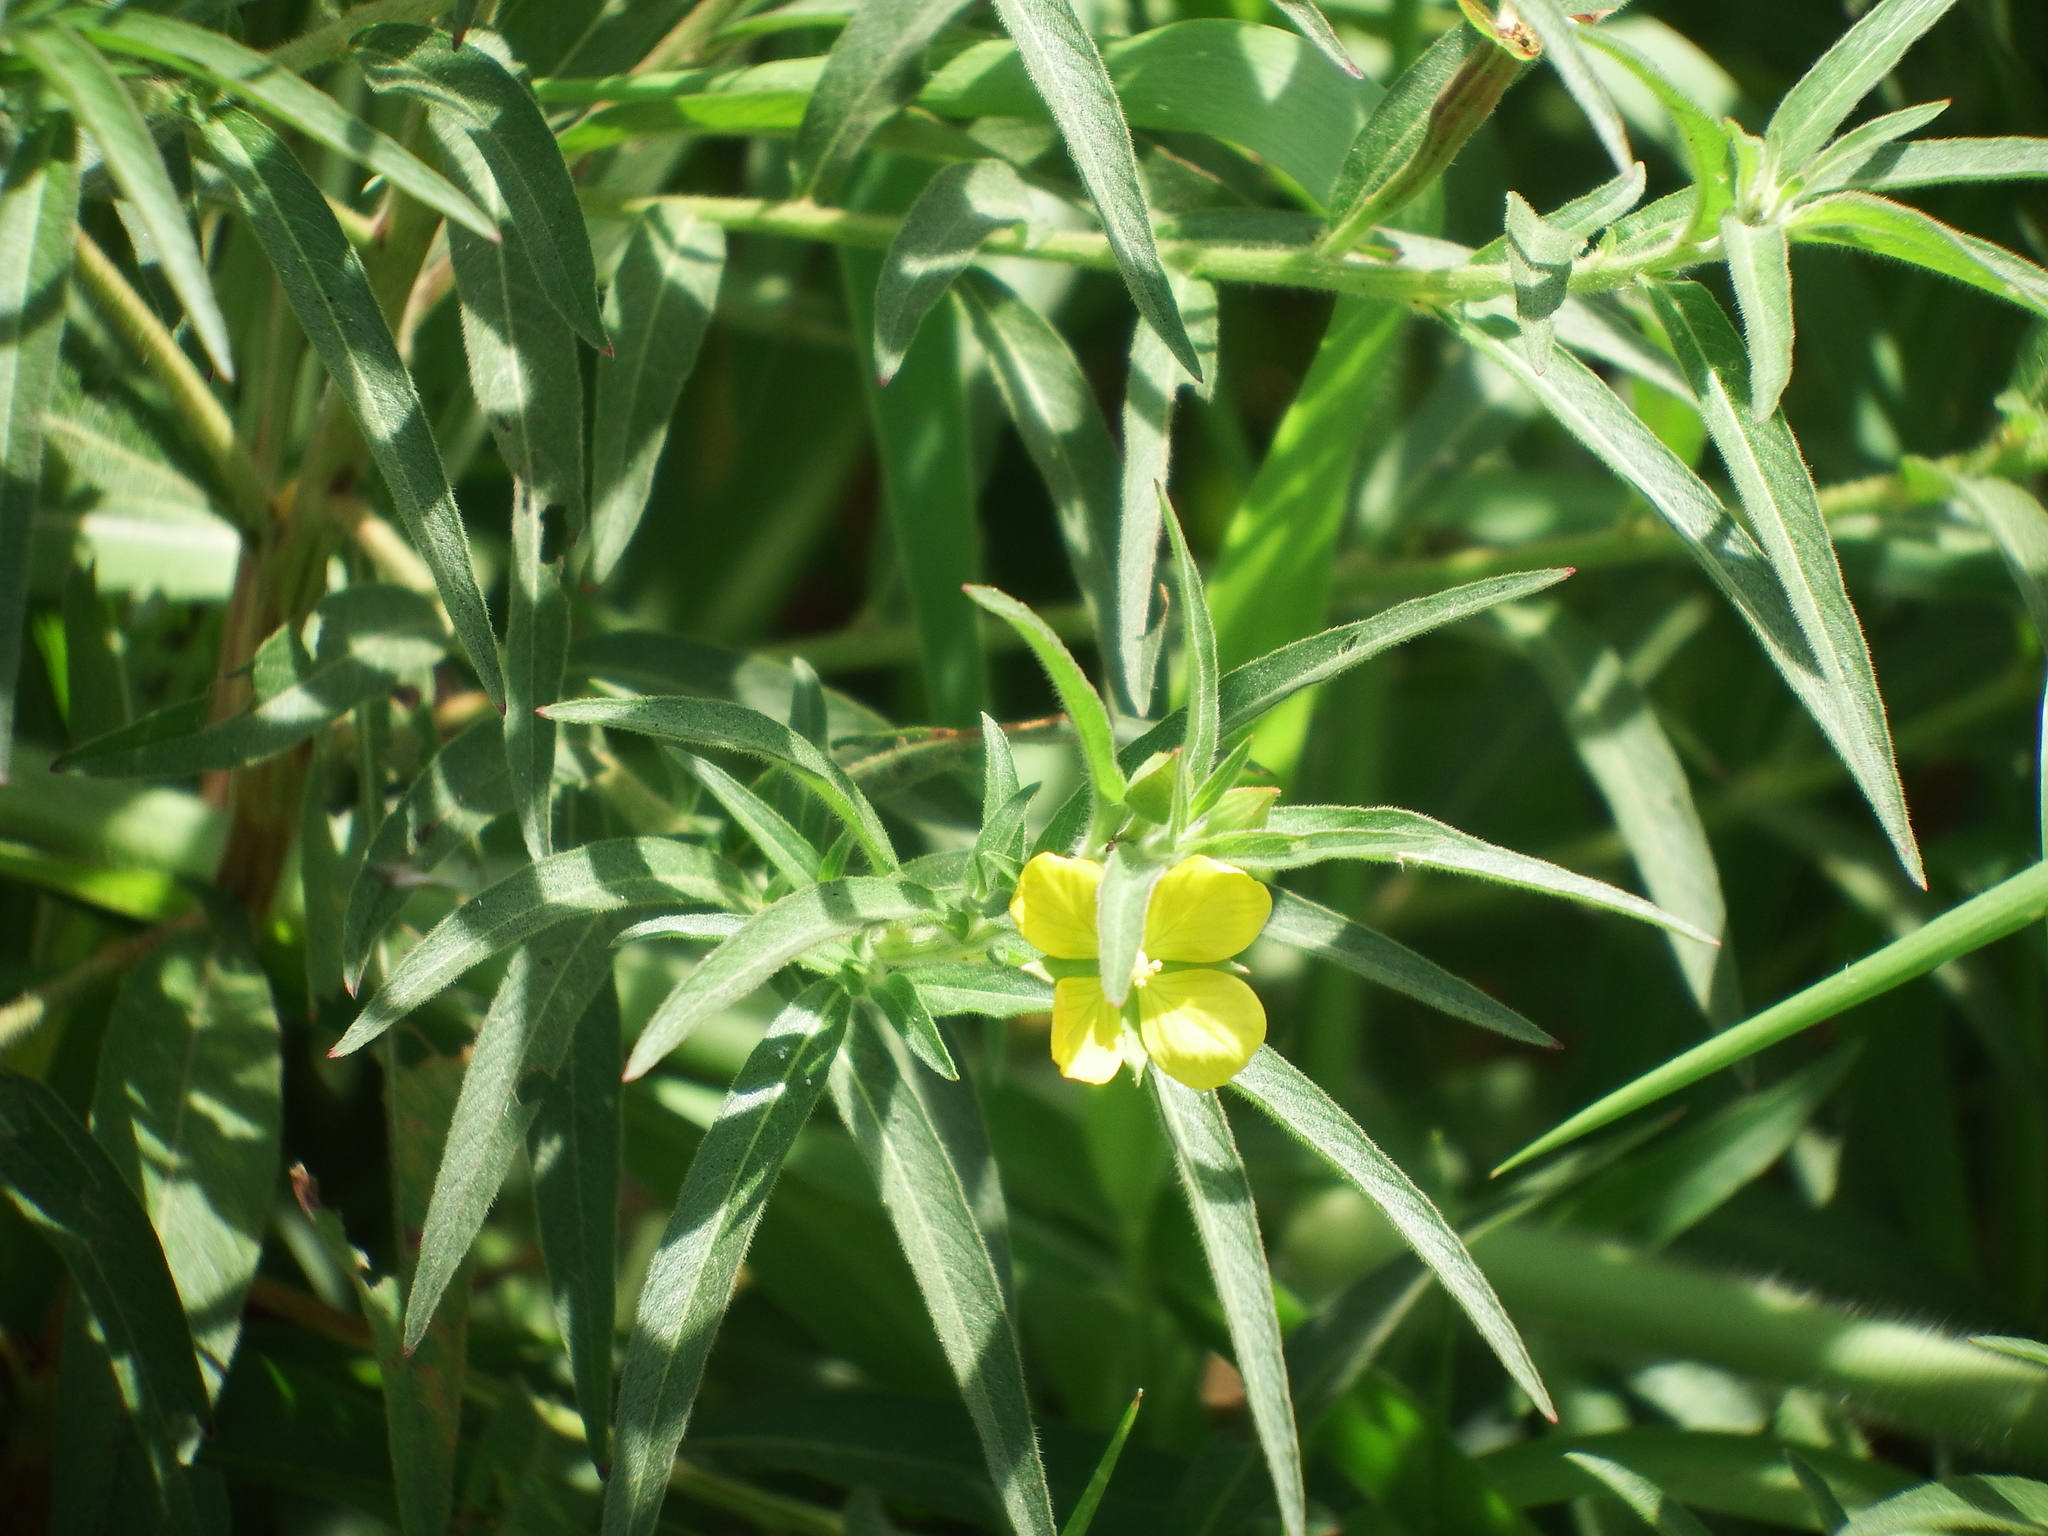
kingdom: Plantae
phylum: Tracheophyta
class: Magnoliopsida
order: Myrtales
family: Onagraceae
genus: Ludwigia
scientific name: Ludwigia octovalvis
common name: Water-primrose
